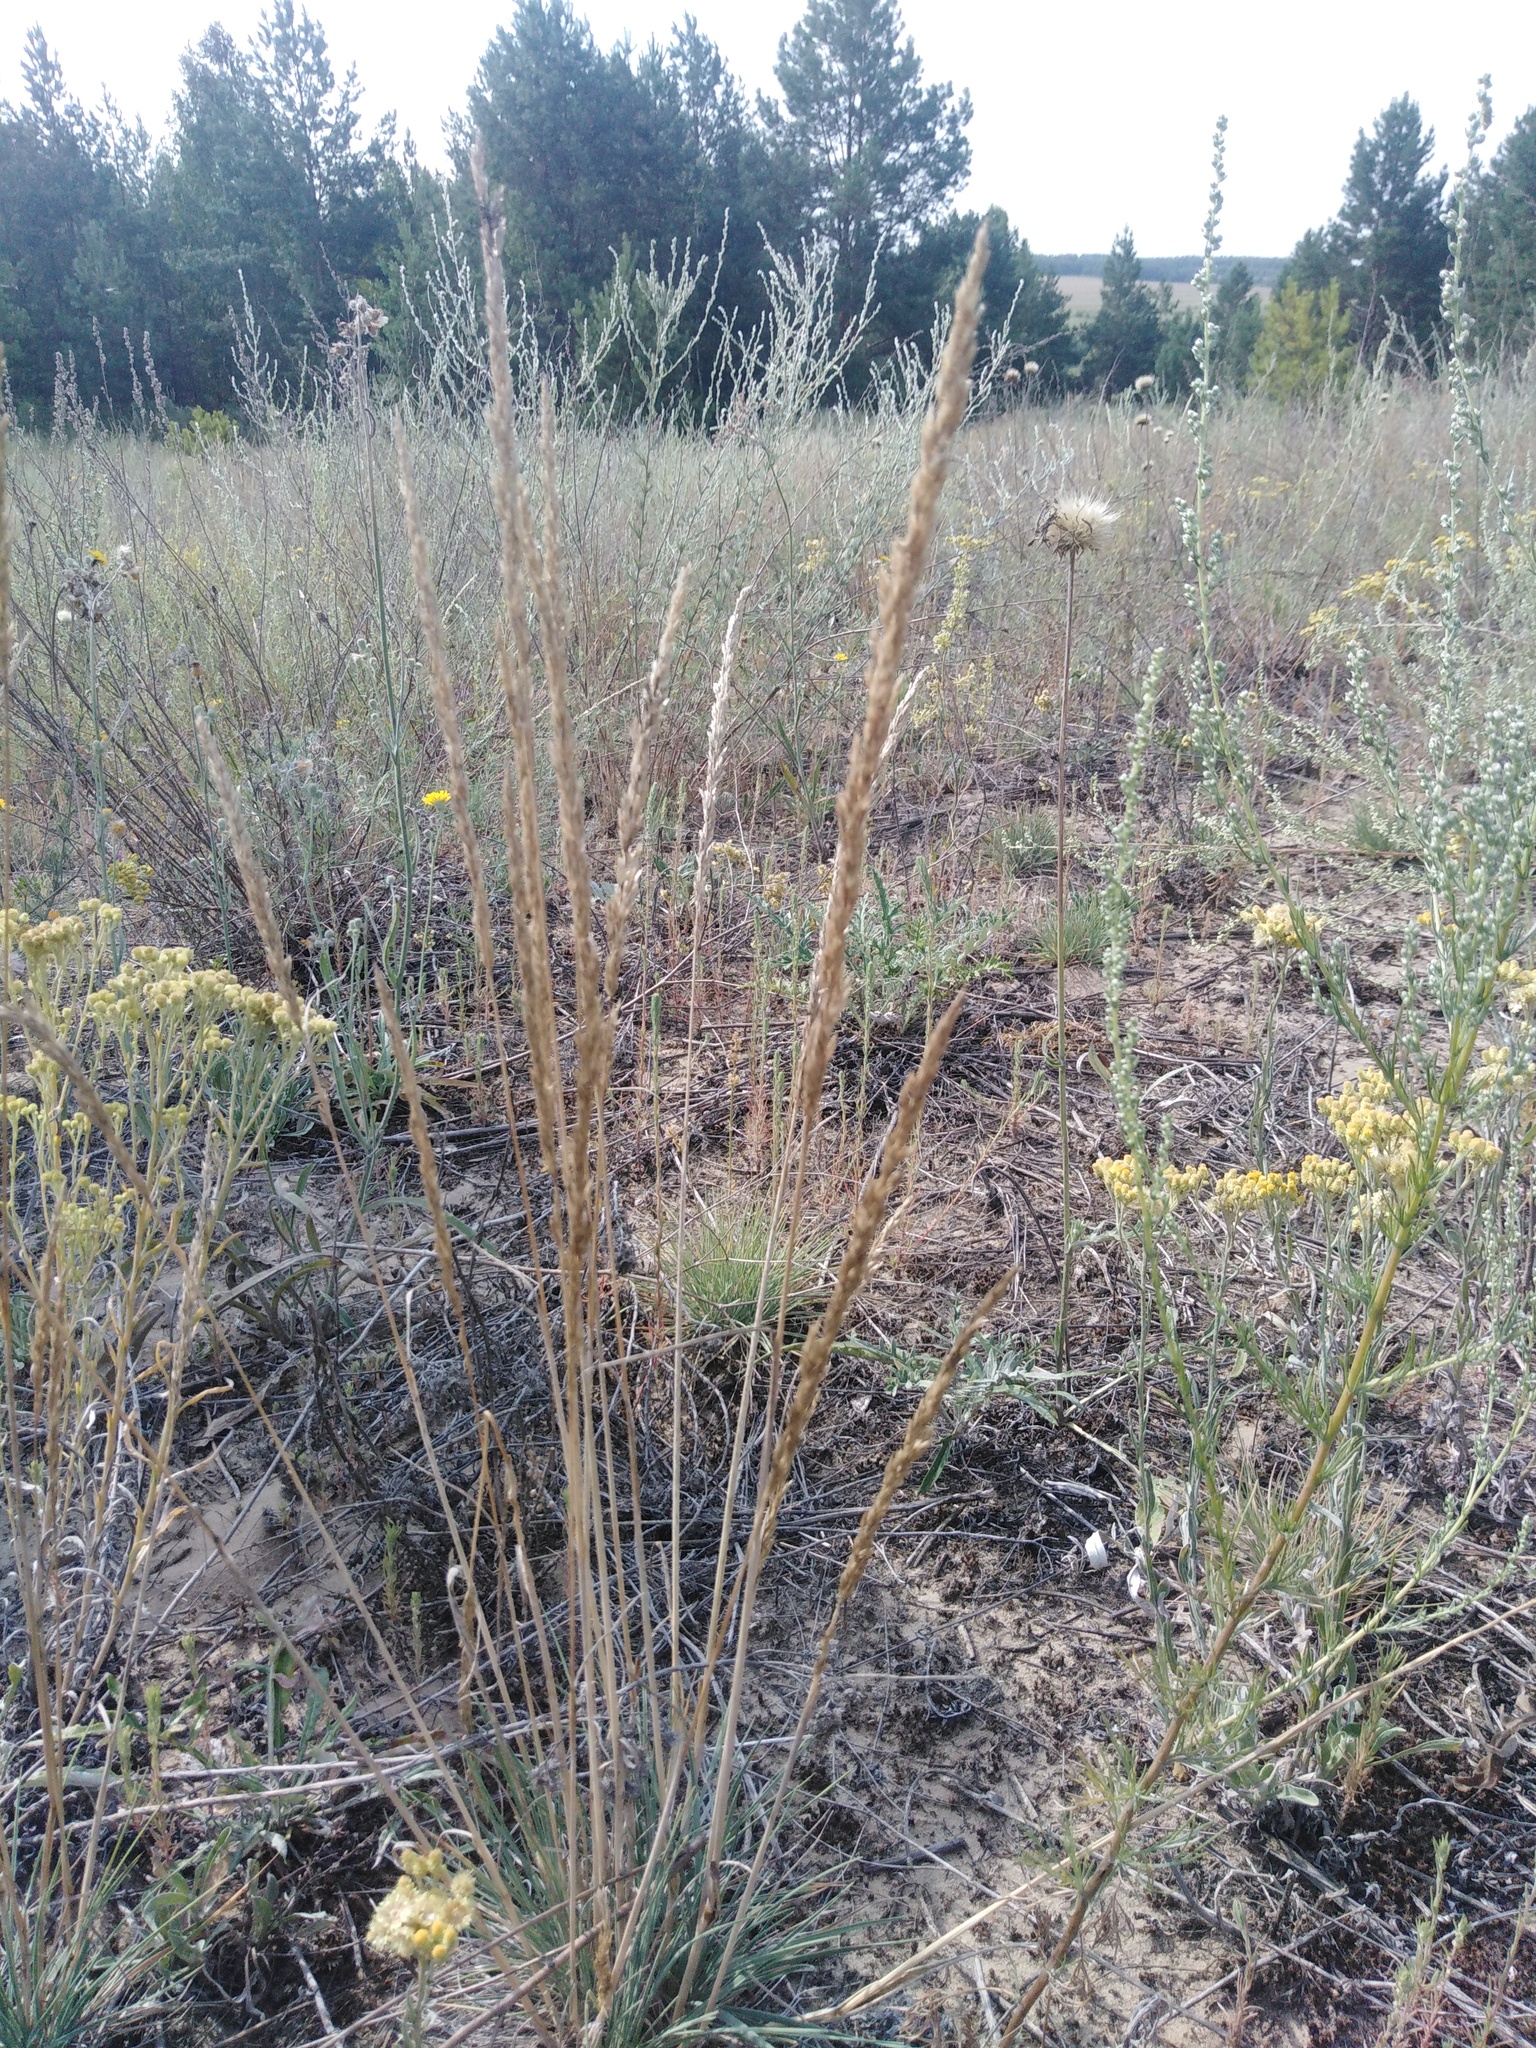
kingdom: Plantae
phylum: Tracheophyta
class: Liliopsida
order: Poales
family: Poaceae
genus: Koeleria
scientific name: Koeleria glauca
